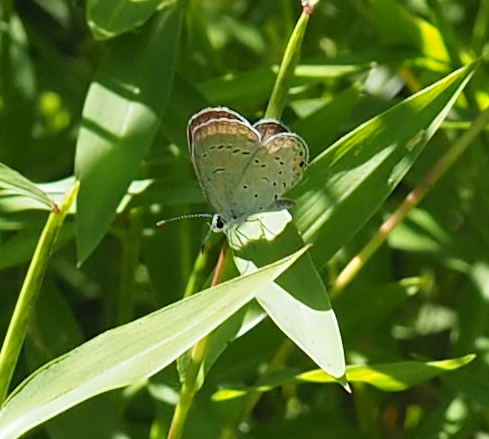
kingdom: Animalia
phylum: Arthropoda
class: Insecta
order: Lepidoptera
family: Lycaenidae
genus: Elkalyce
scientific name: Elkalyce comyntas
